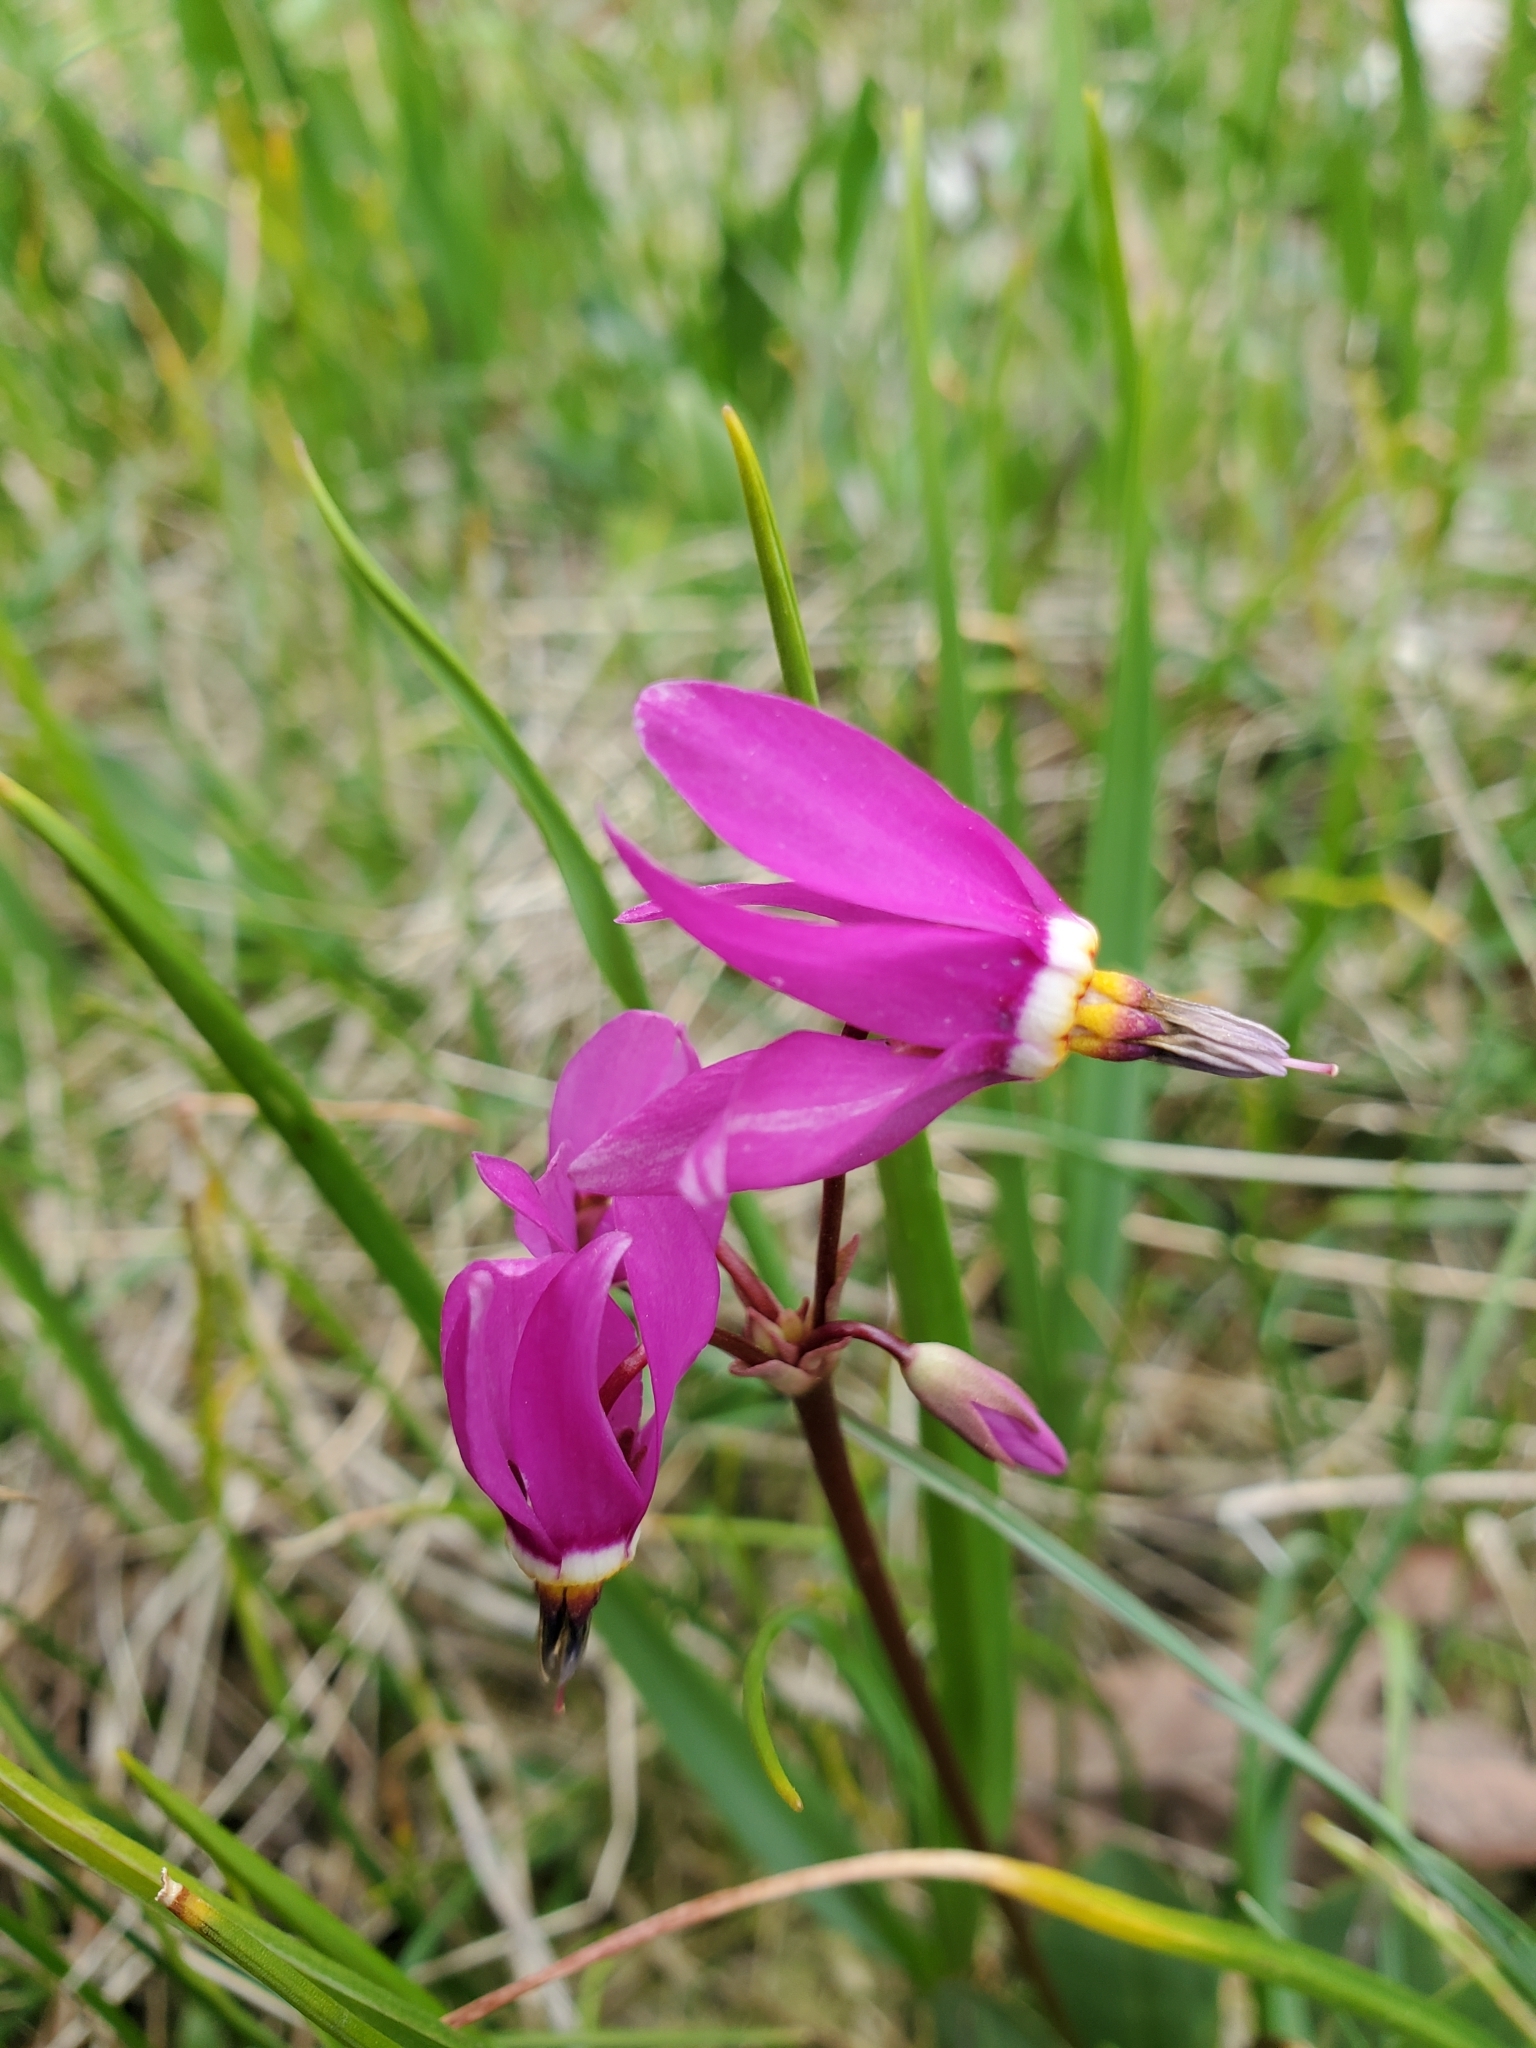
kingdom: Plantae
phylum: Tracheophyta
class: Magnoliopsida
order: Ericales
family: Primulaceae
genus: Dodecatheon
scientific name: Dodecatheon pulchellum
